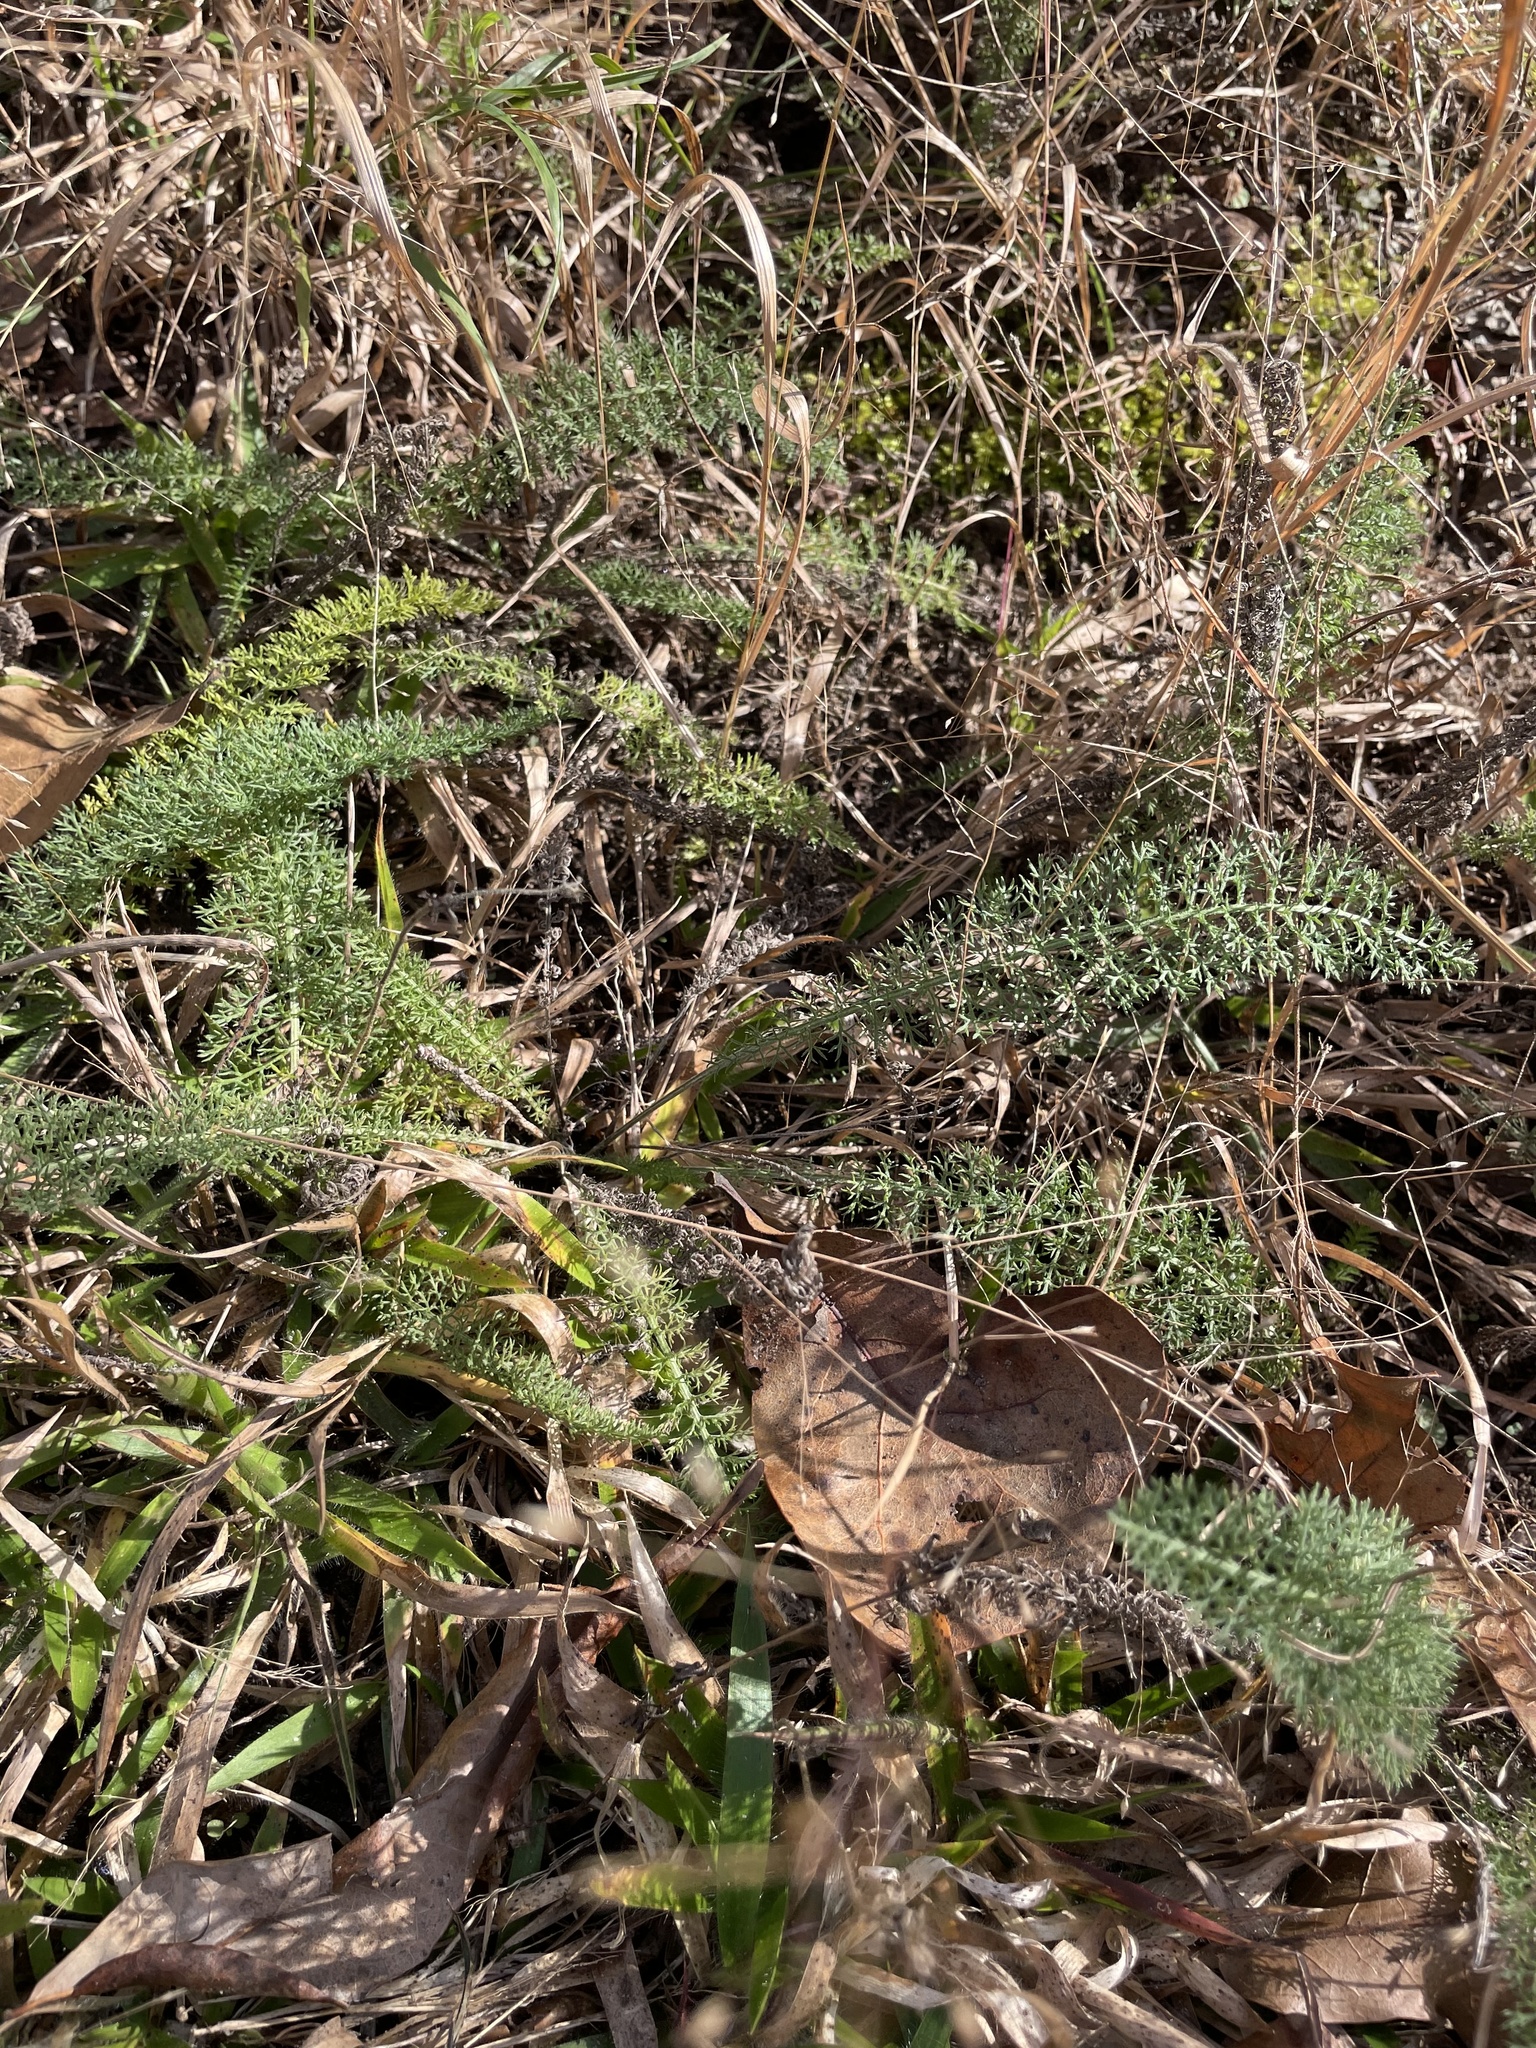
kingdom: Plantae
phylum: Tracheophyta
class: Magnoliopsida
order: Asterales
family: Asteraceae
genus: Achillea
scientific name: Achillea millefolium
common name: Yarrow
